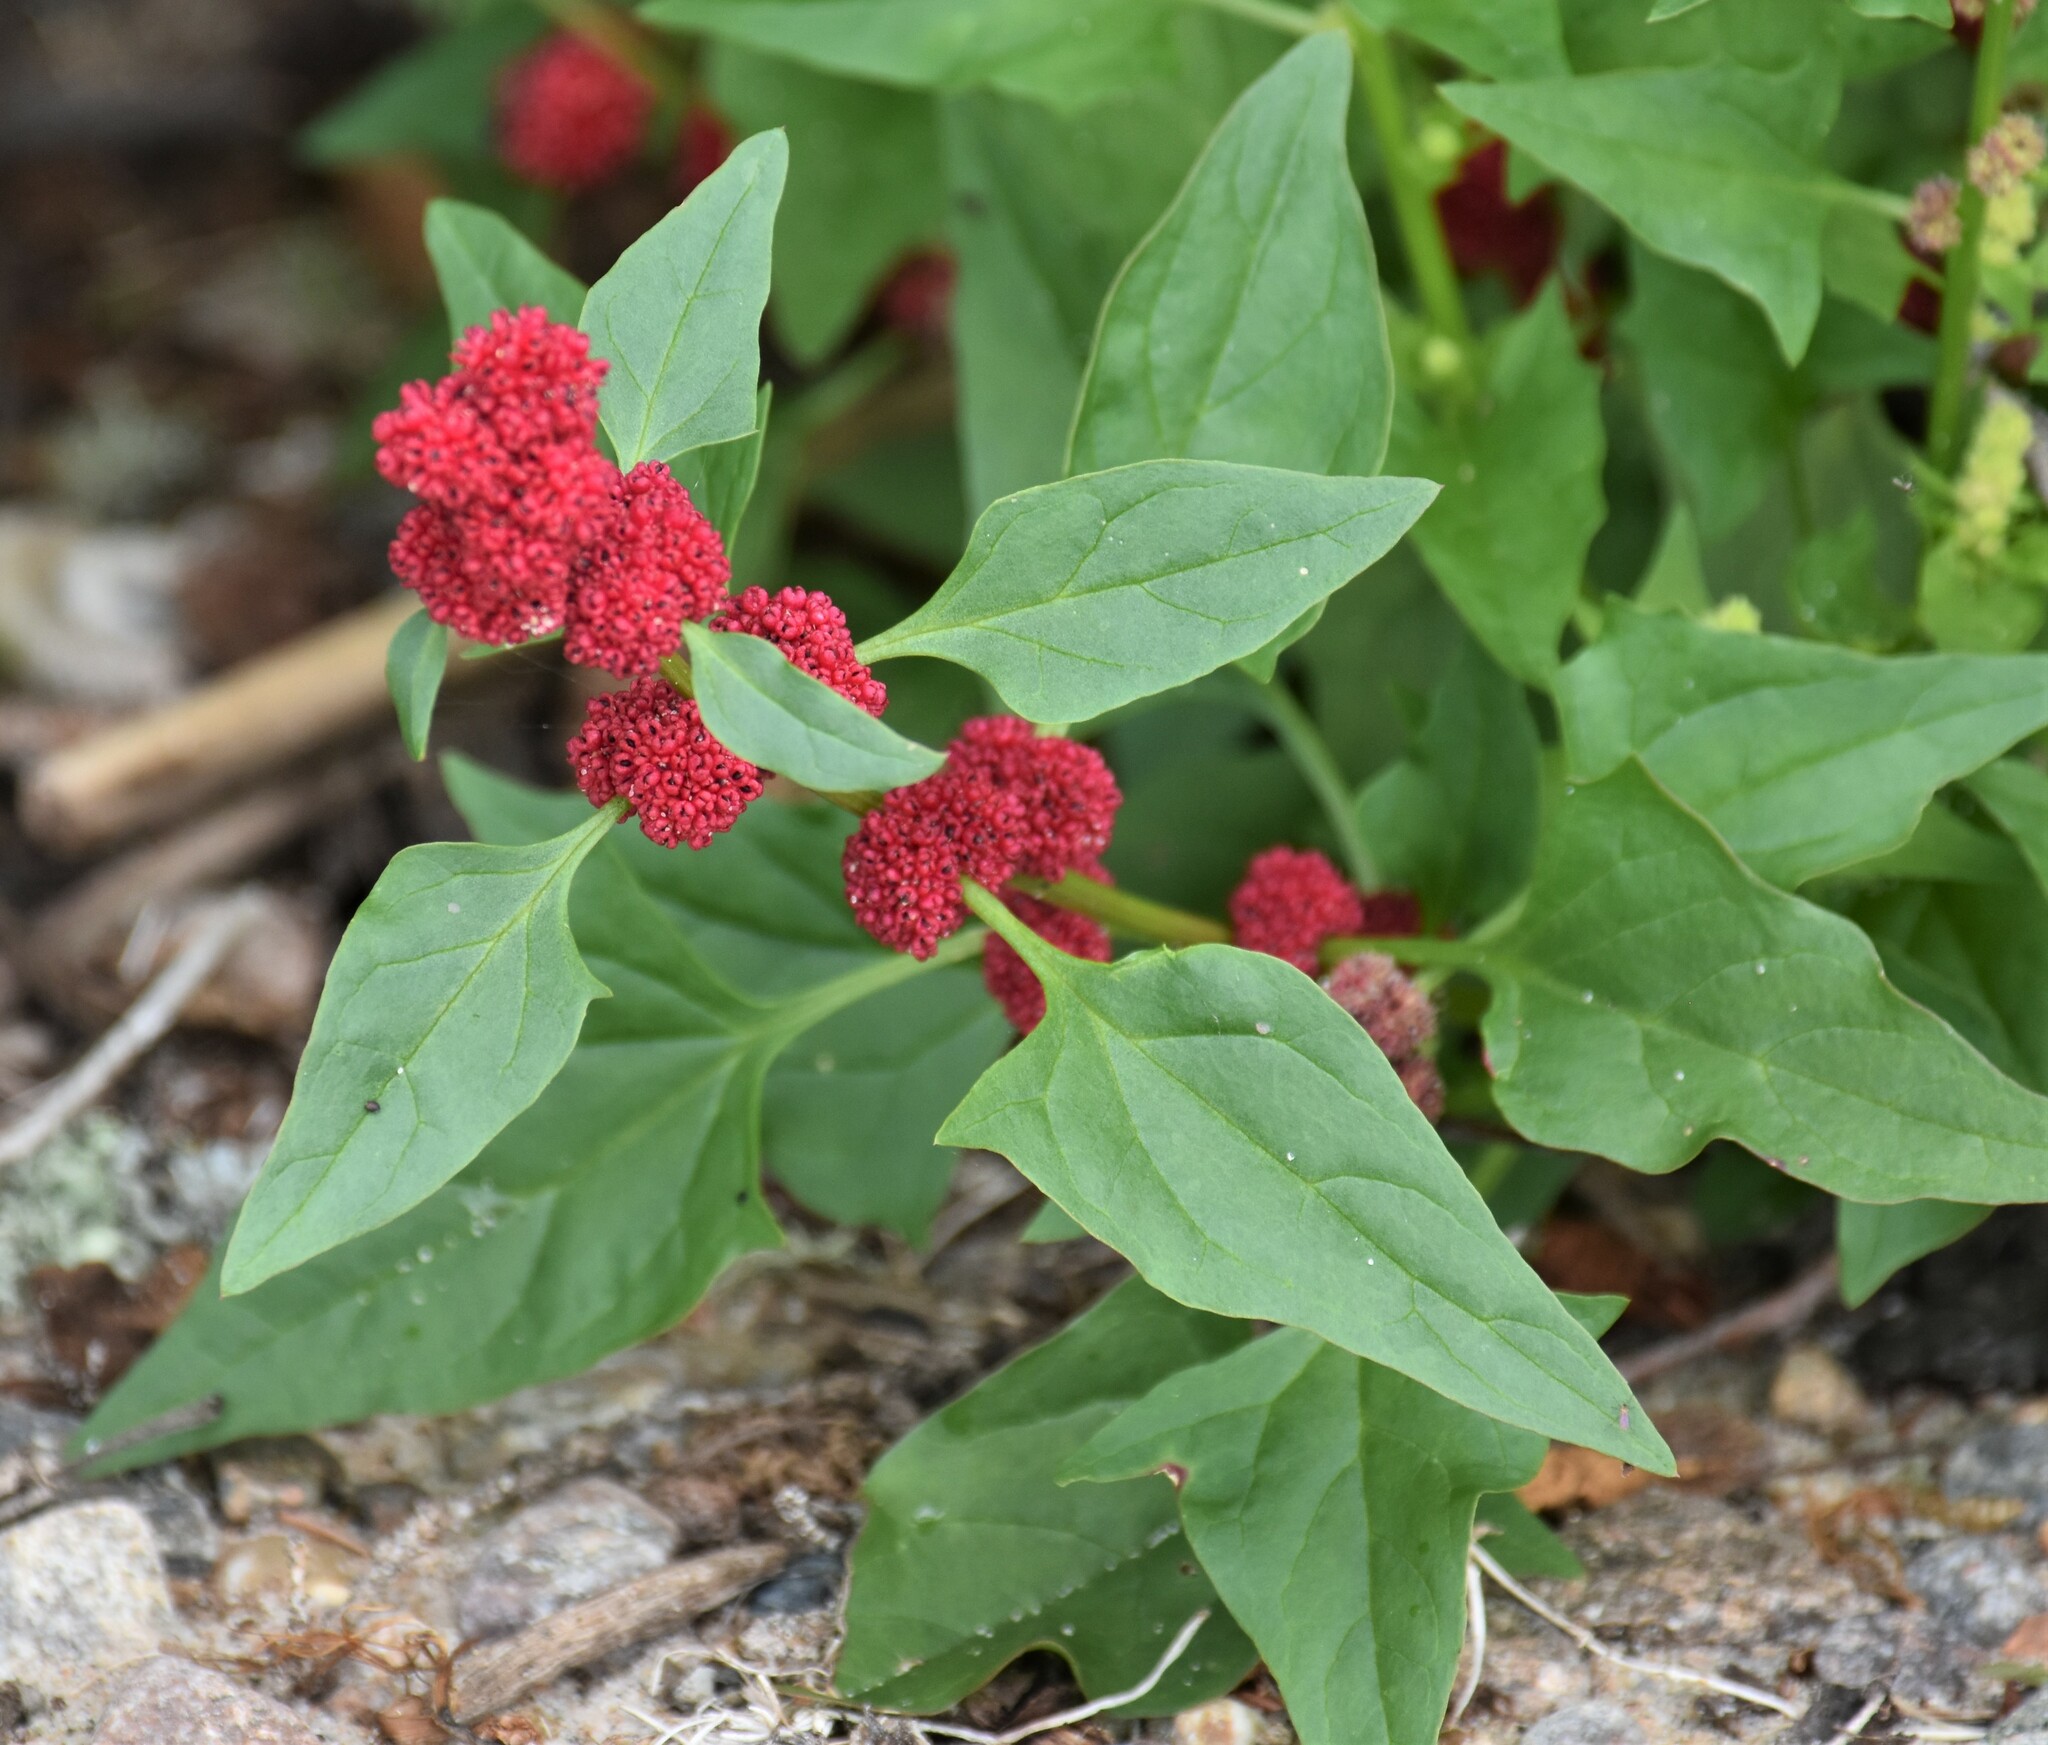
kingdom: Plantae
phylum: Tracheophyta
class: Magnoliopsida
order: Caryophyllales
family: Amaranthaceae
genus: Blitum
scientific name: Blitum capitatum
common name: Strawberry-blight
